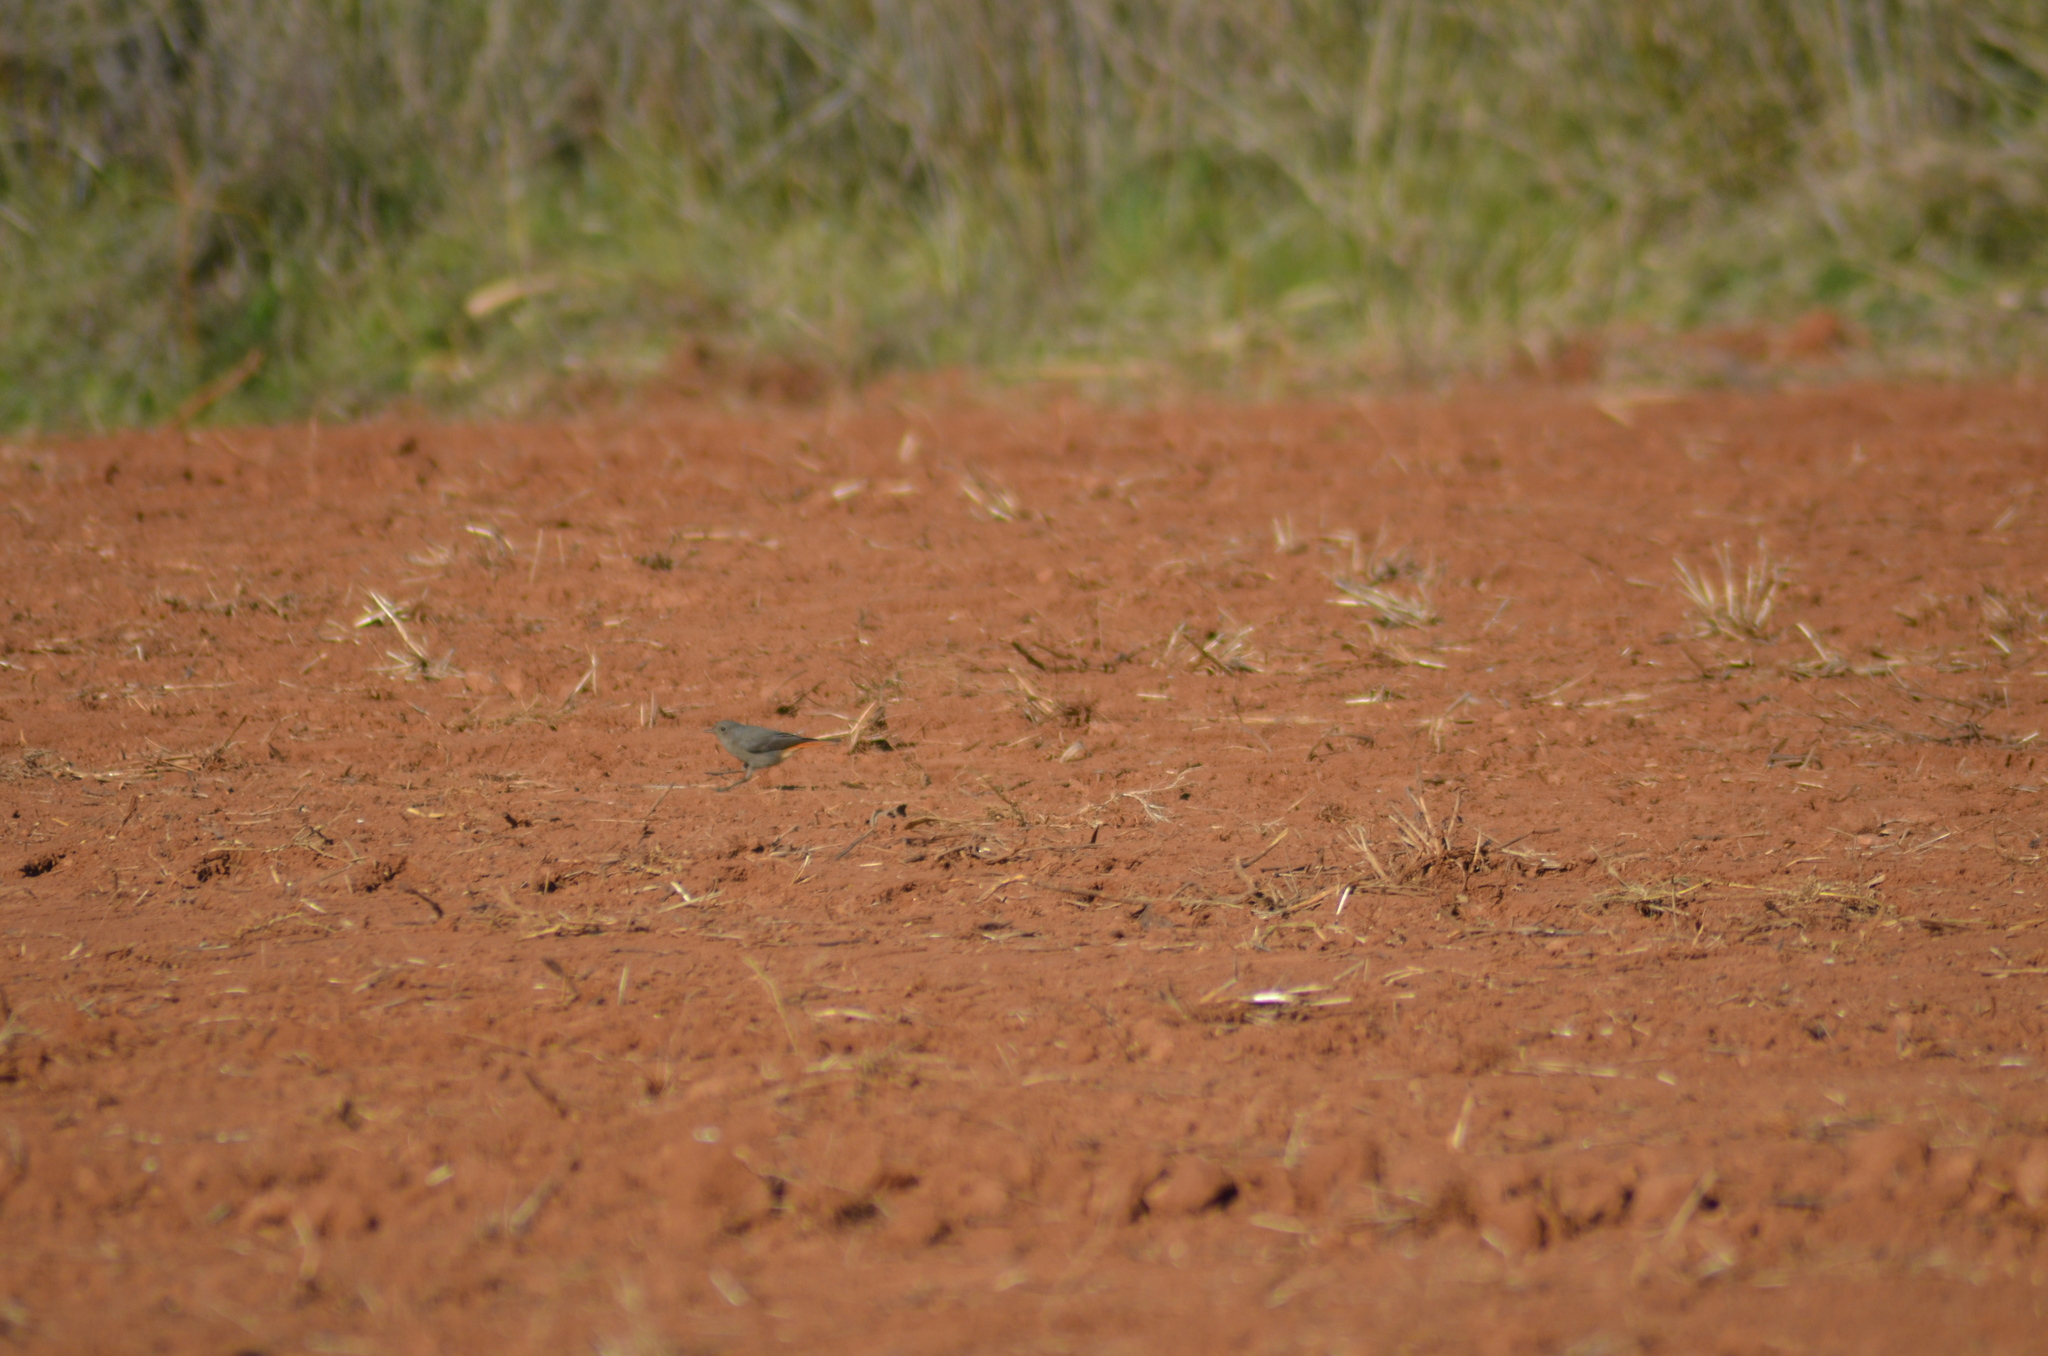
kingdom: Animalia
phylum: Chordata
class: Aves
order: Passeriformes
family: Muscicapidae
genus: Phoenicurus
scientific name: Phoenicurus ochruros
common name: Black redstart
